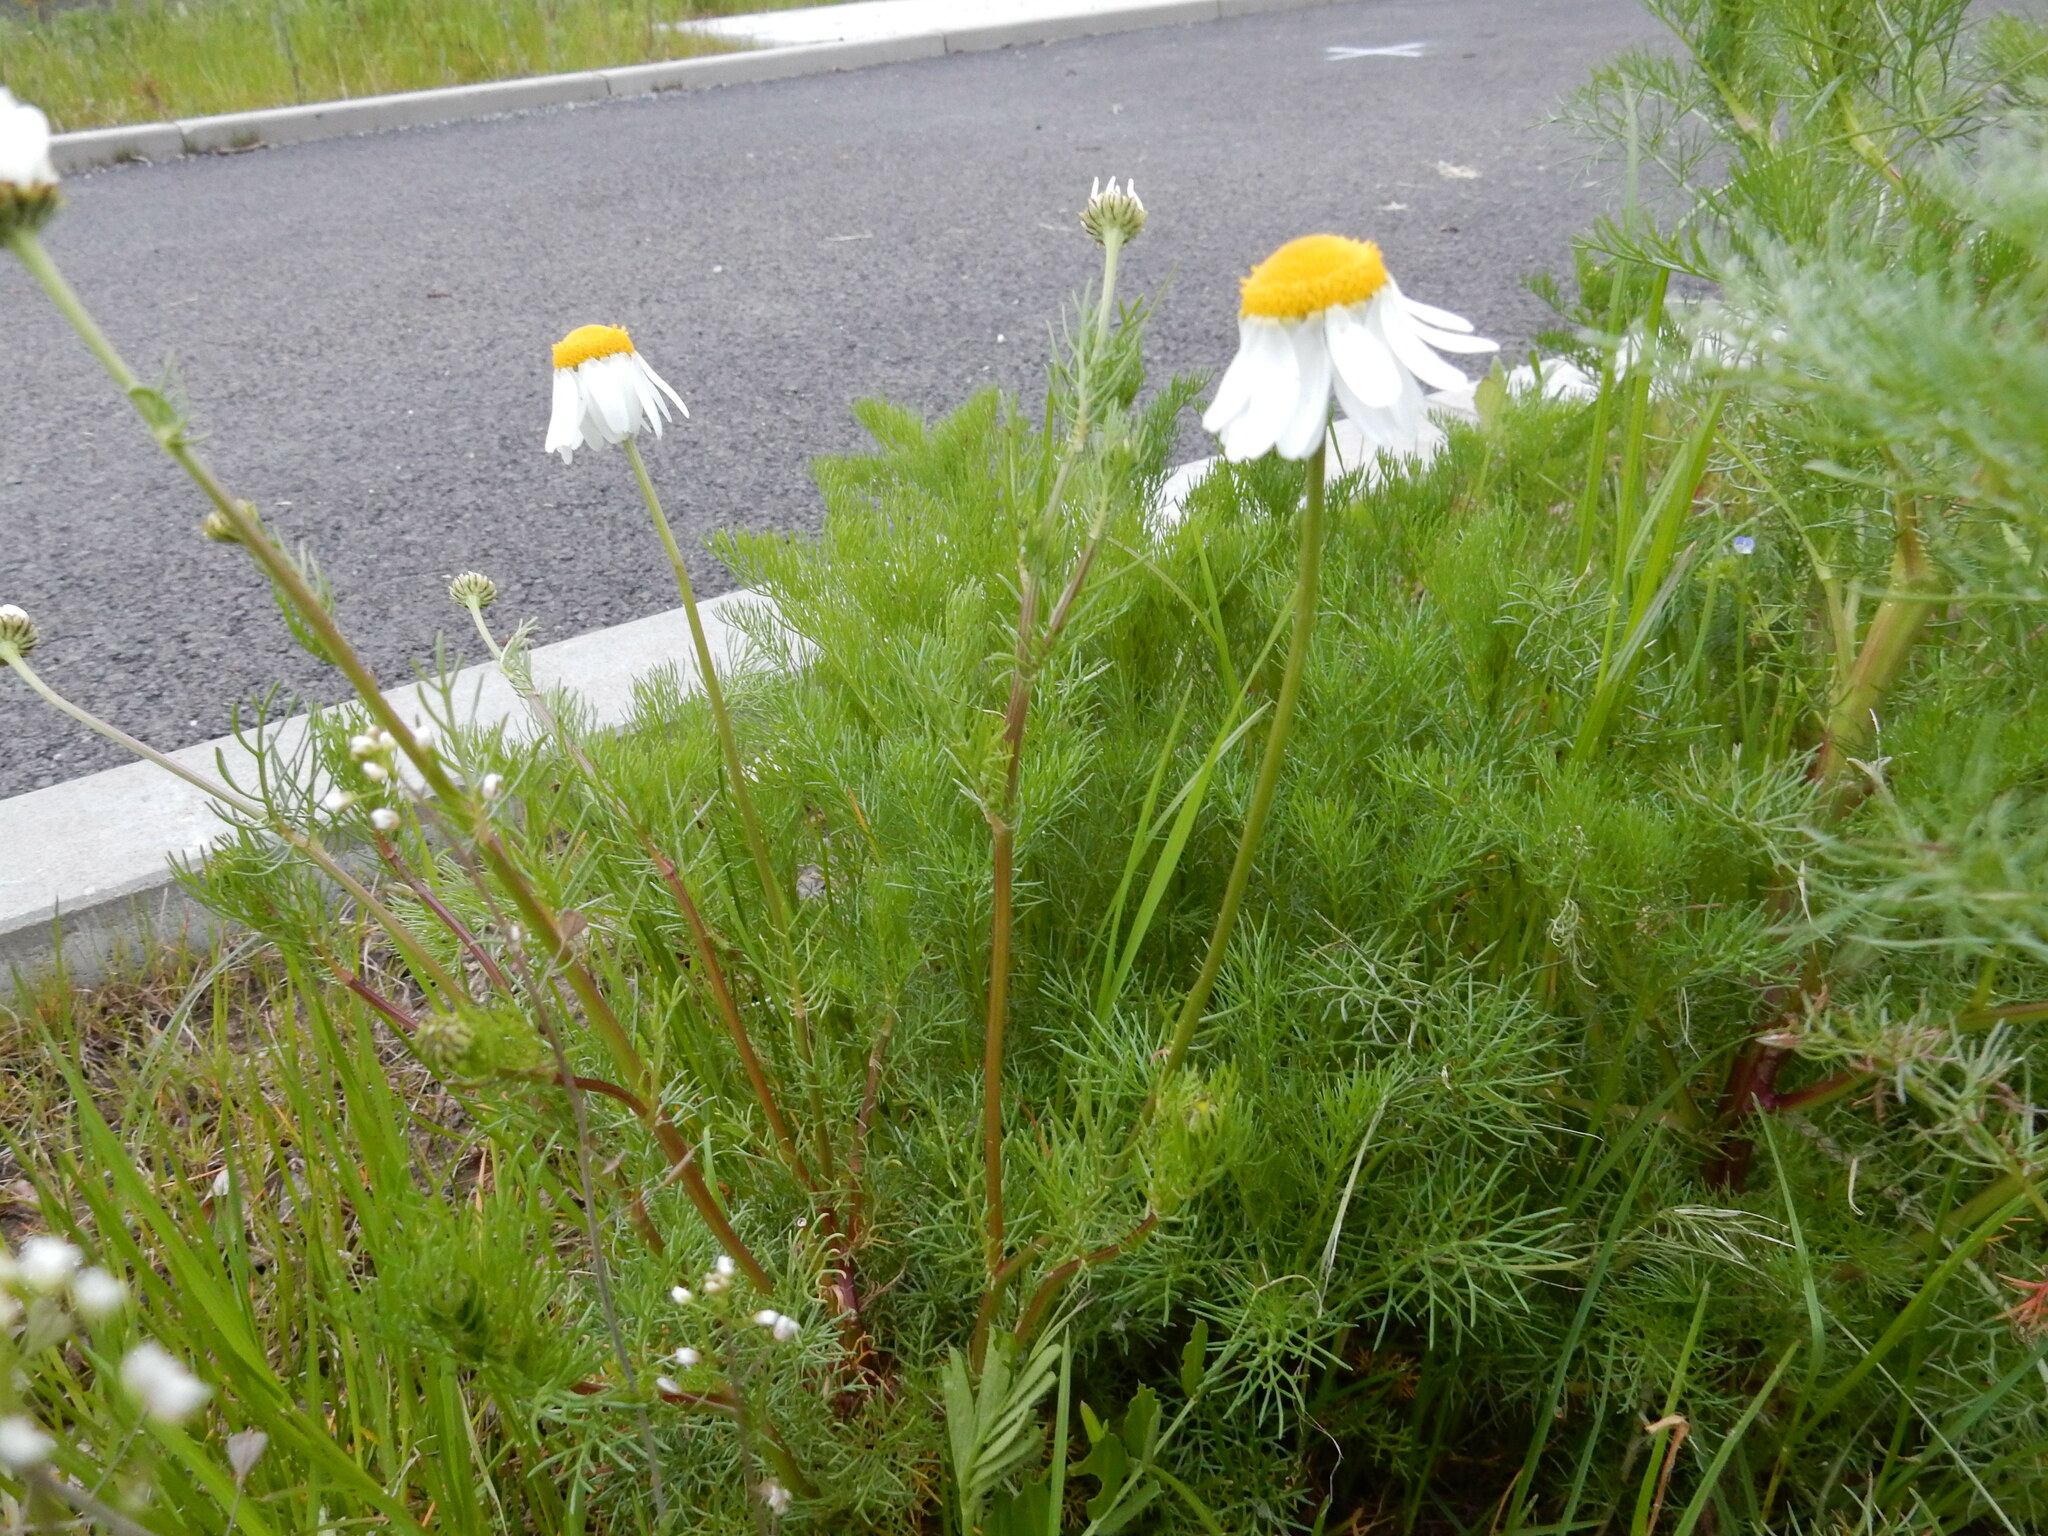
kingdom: Plantae
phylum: Tracheophyta
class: Magnoliopsida
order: Asterales
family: Asteraceae
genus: Tripleurospermum
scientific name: Tripleurospermum inodorum
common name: Scentless mayweed
